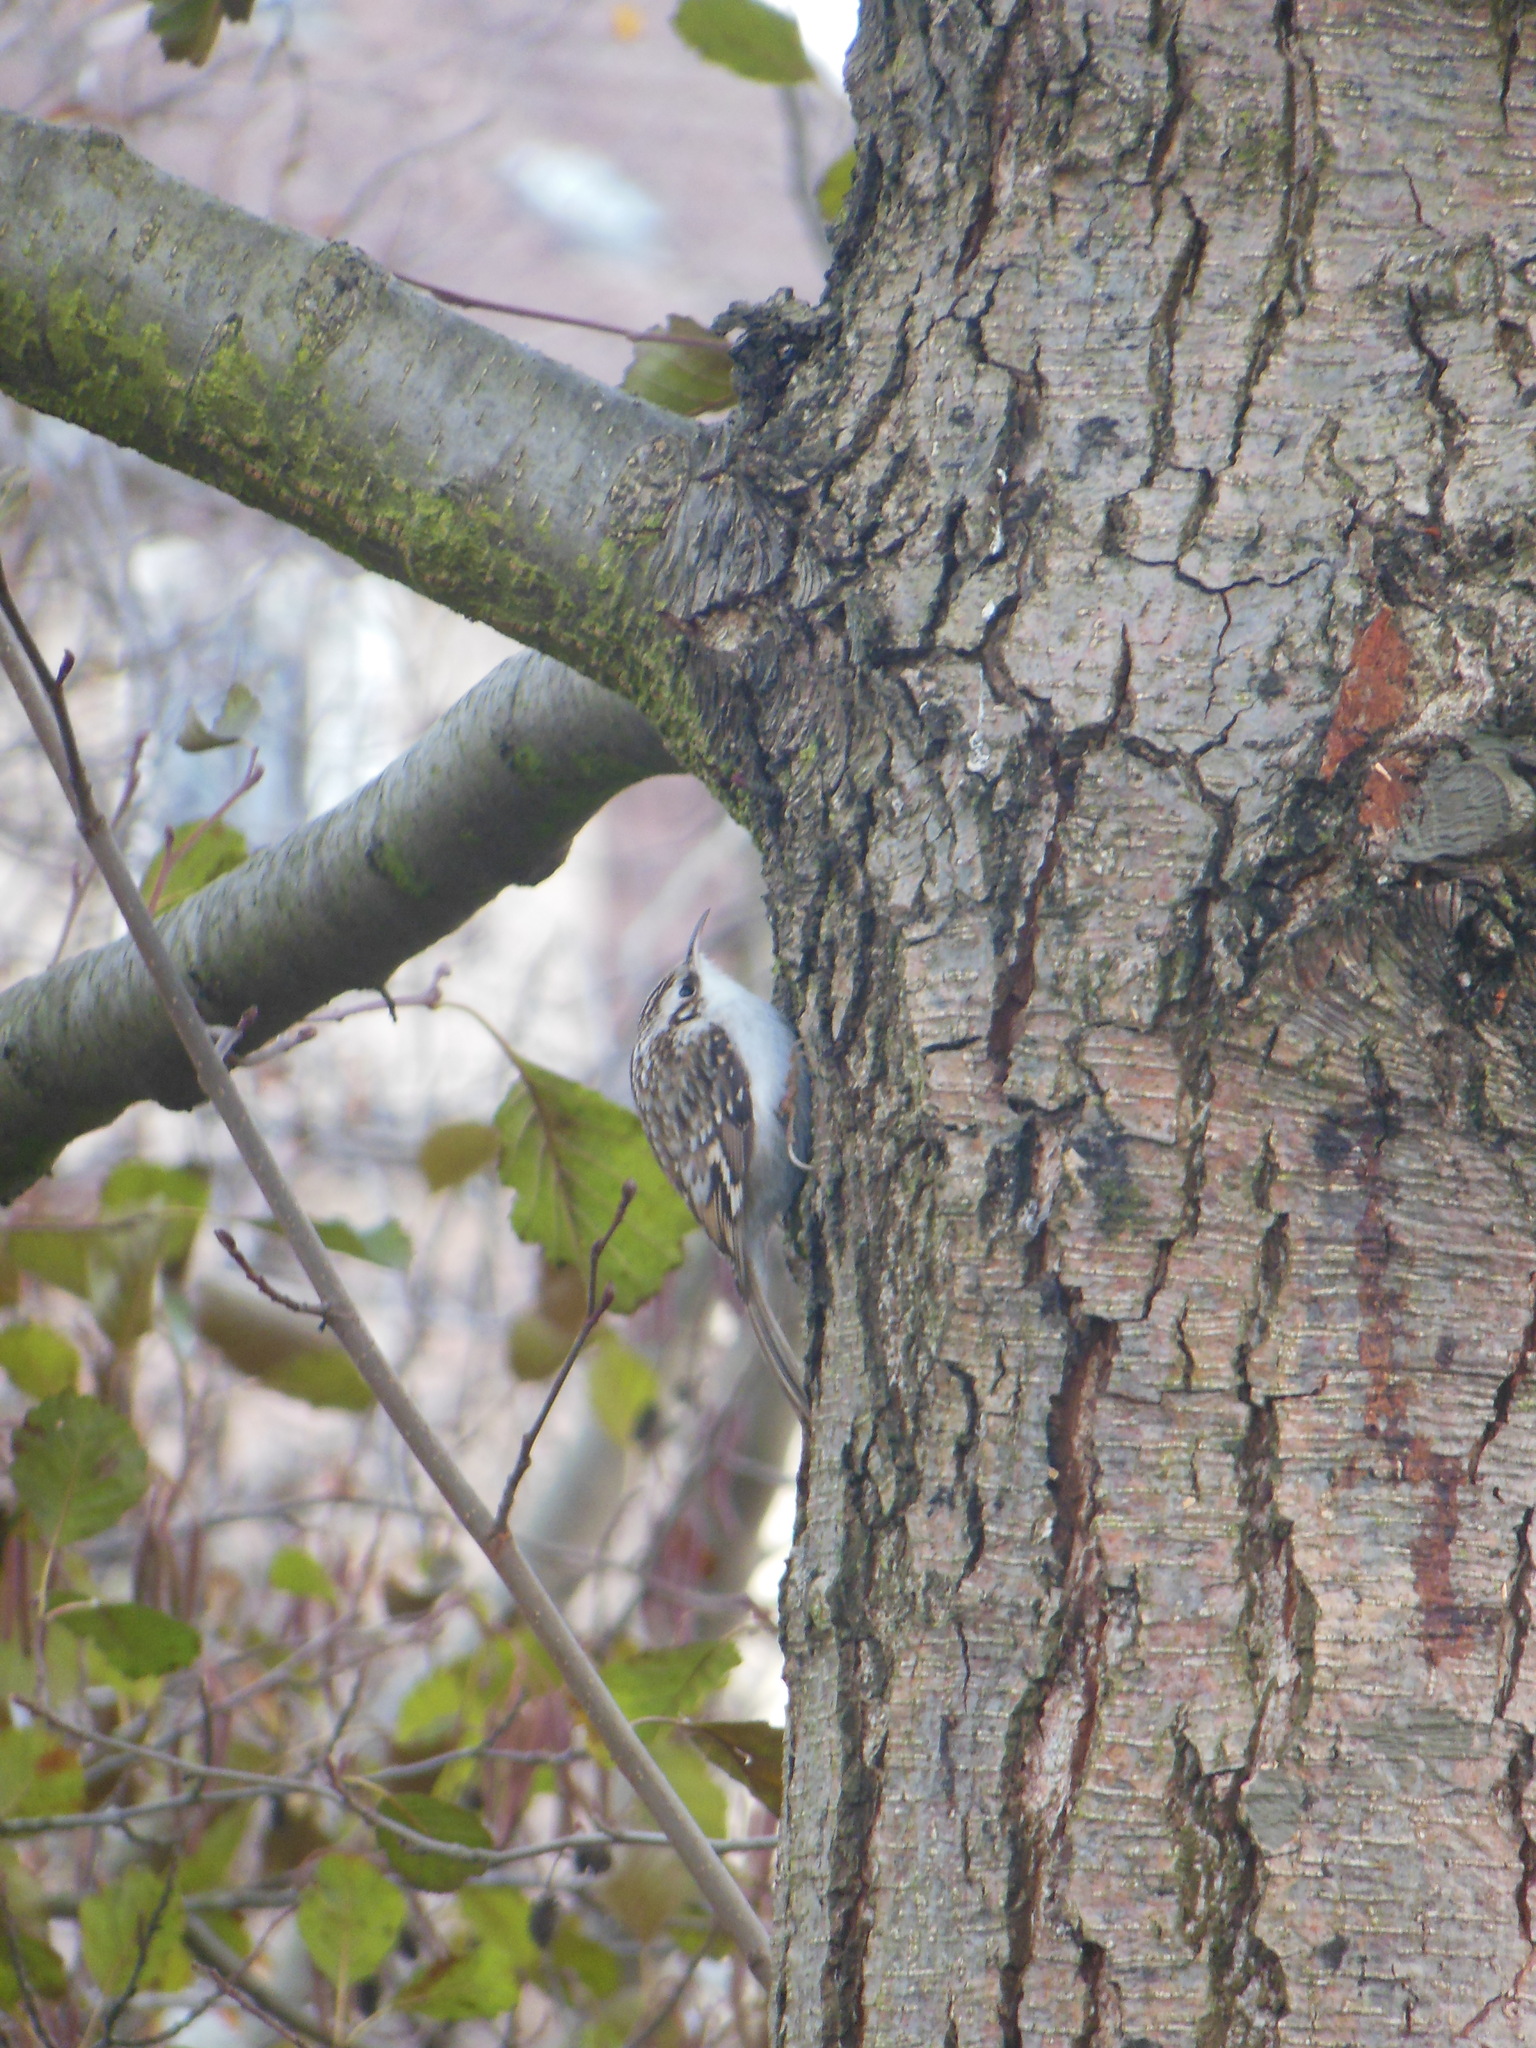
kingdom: Animalia
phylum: Chordata
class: Aves
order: Passeriformes
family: Certhiidae
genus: Certhia
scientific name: Certhia familiaris
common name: Eurasian treecreeper
